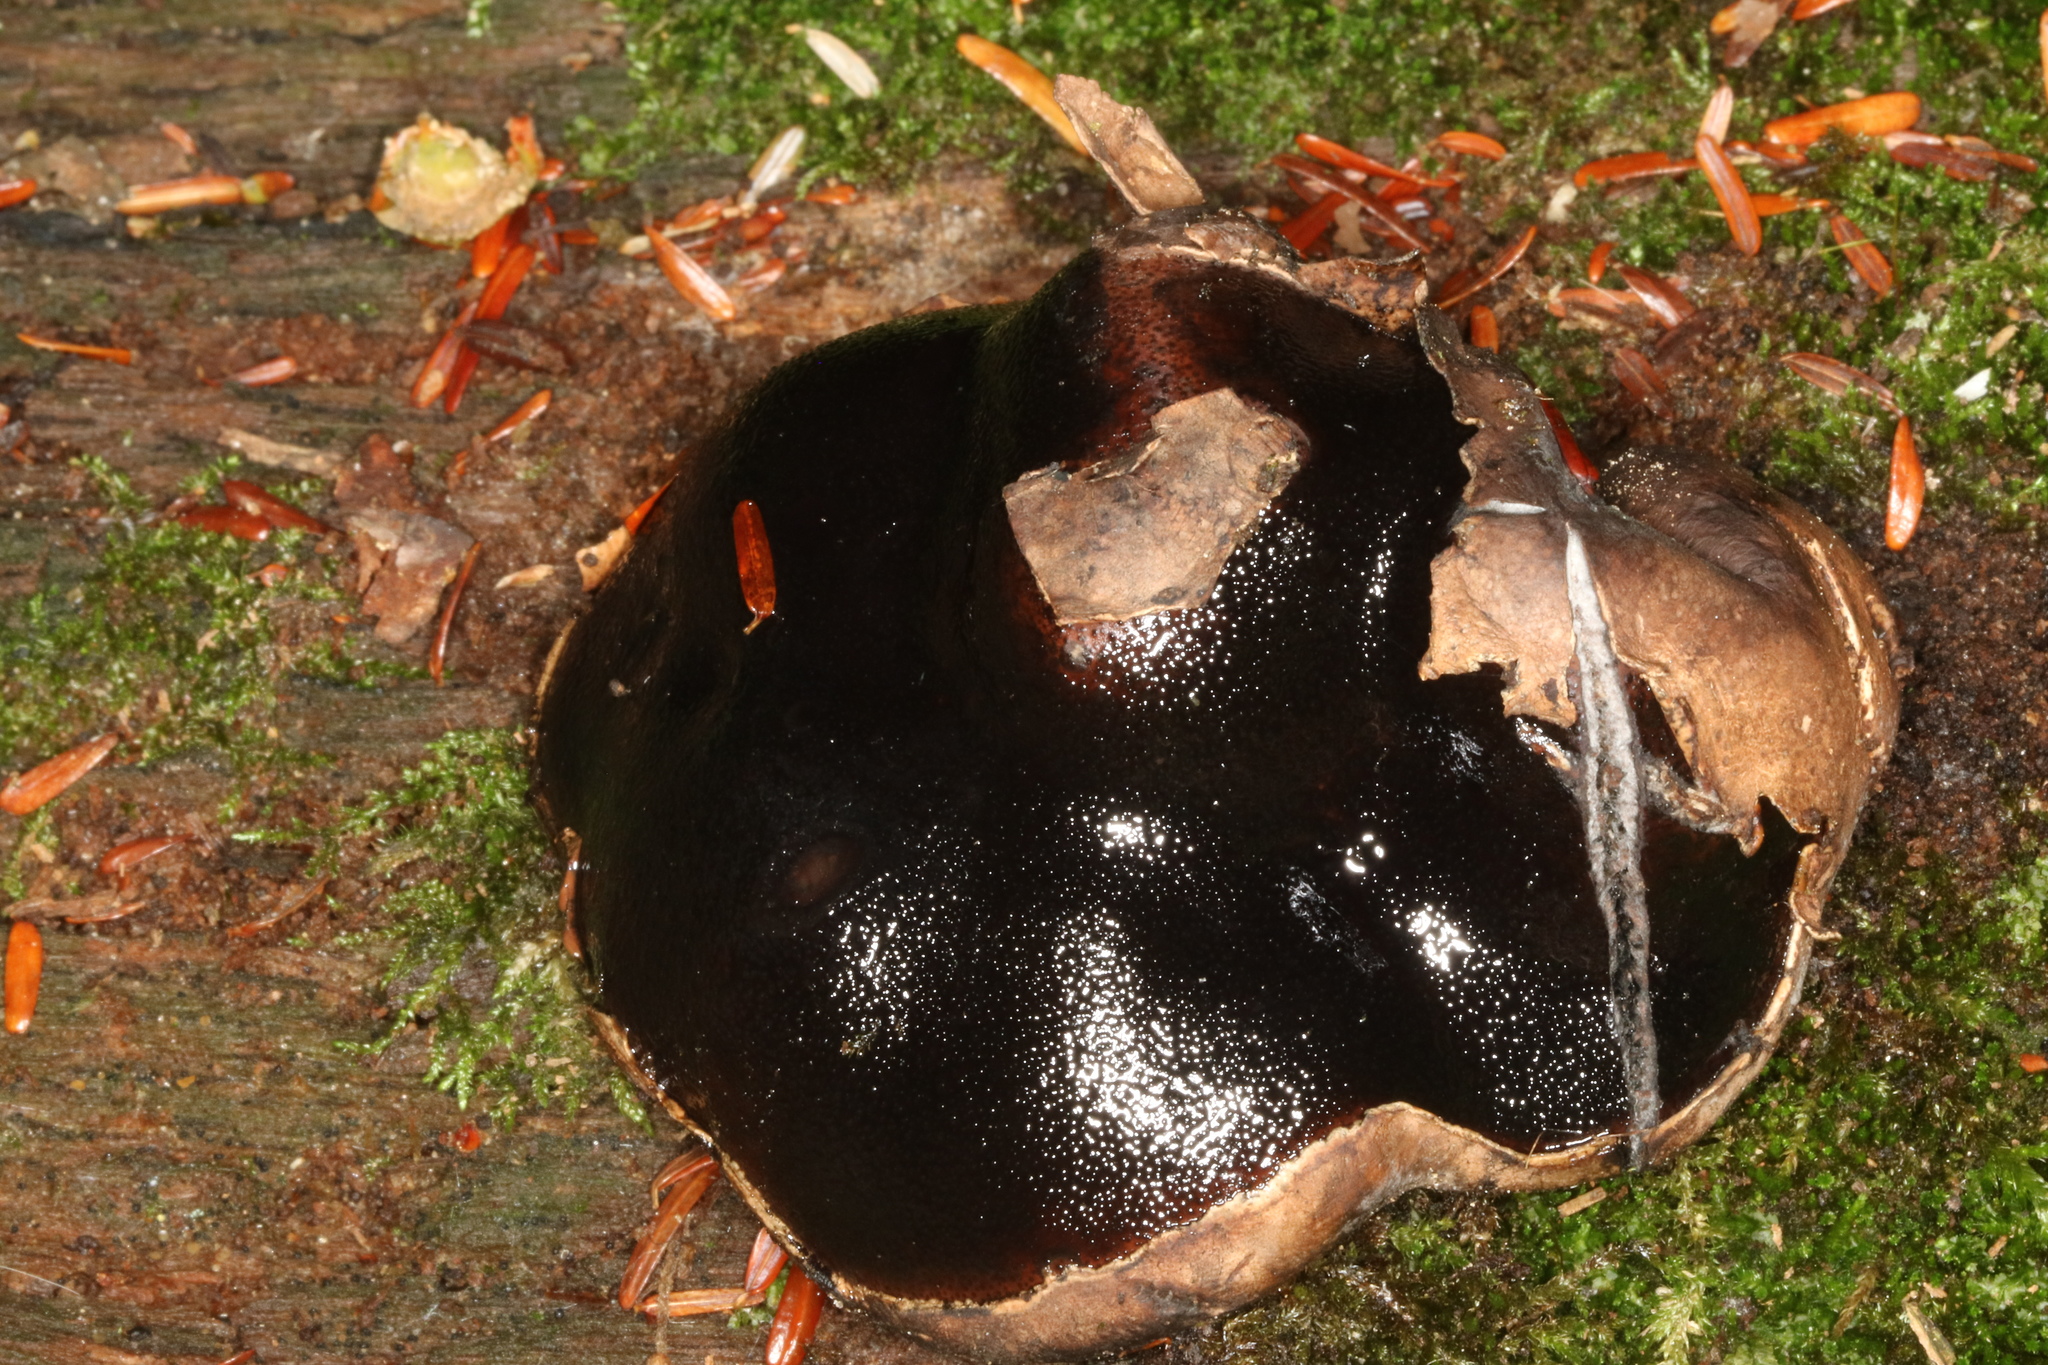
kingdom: Fungi
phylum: Ascomycota
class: Sordariomycetes
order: Boliniales
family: Boliniaceae
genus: Camarops
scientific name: Camarops petersii
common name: Dog's nose fungus
